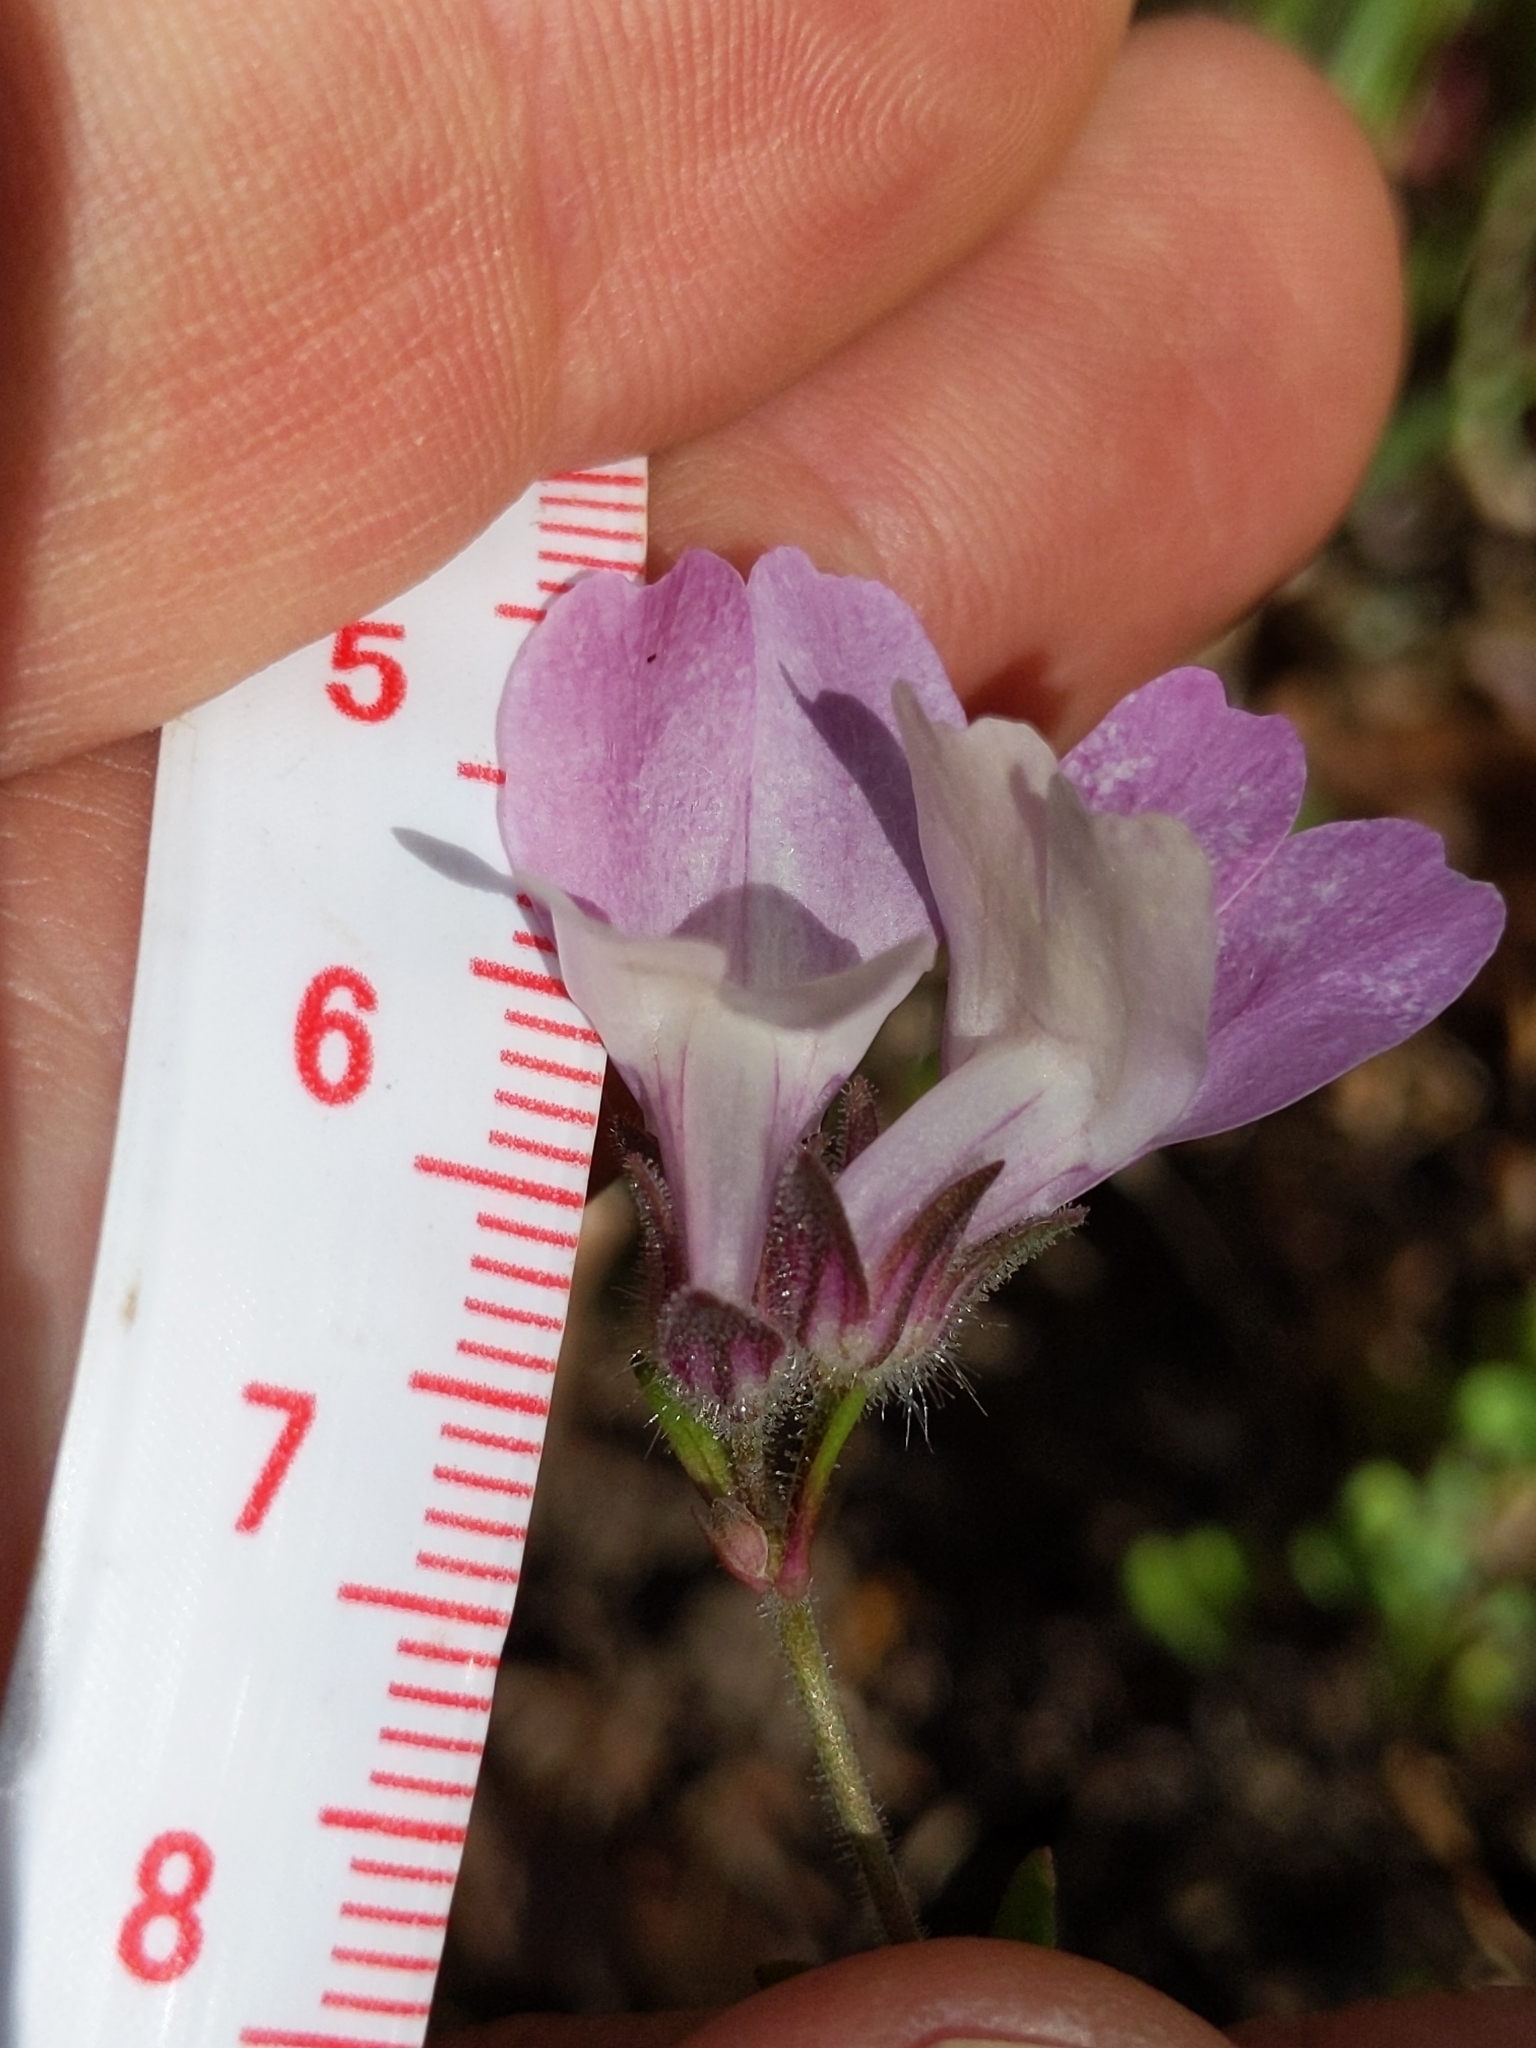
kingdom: Plantae
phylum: Tracheophyta
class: Magnoliopsida
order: Lamiales
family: Plantaginaceae
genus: Collinsia
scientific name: Collinsia heterophylla
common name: Chinese-houses
